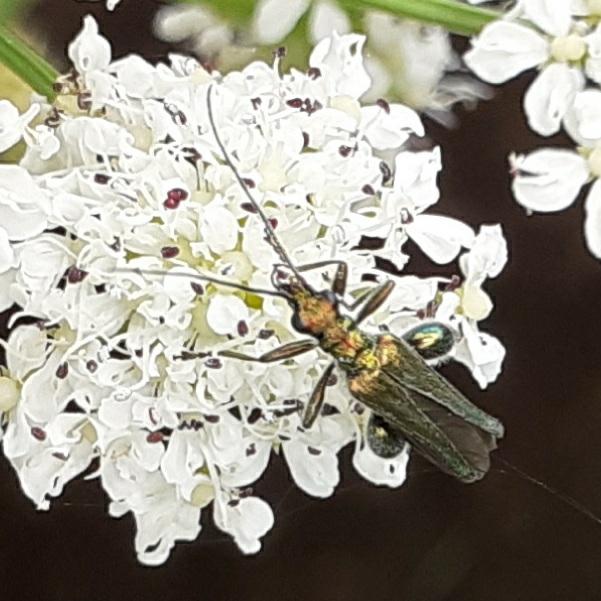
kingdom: Animalia
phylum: Arthropoda
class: Insecta
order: Coleoptera
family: Oedemeridae
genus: Oedemera
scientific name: Oedemera nobilis
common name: Swollen-thighed beetle
